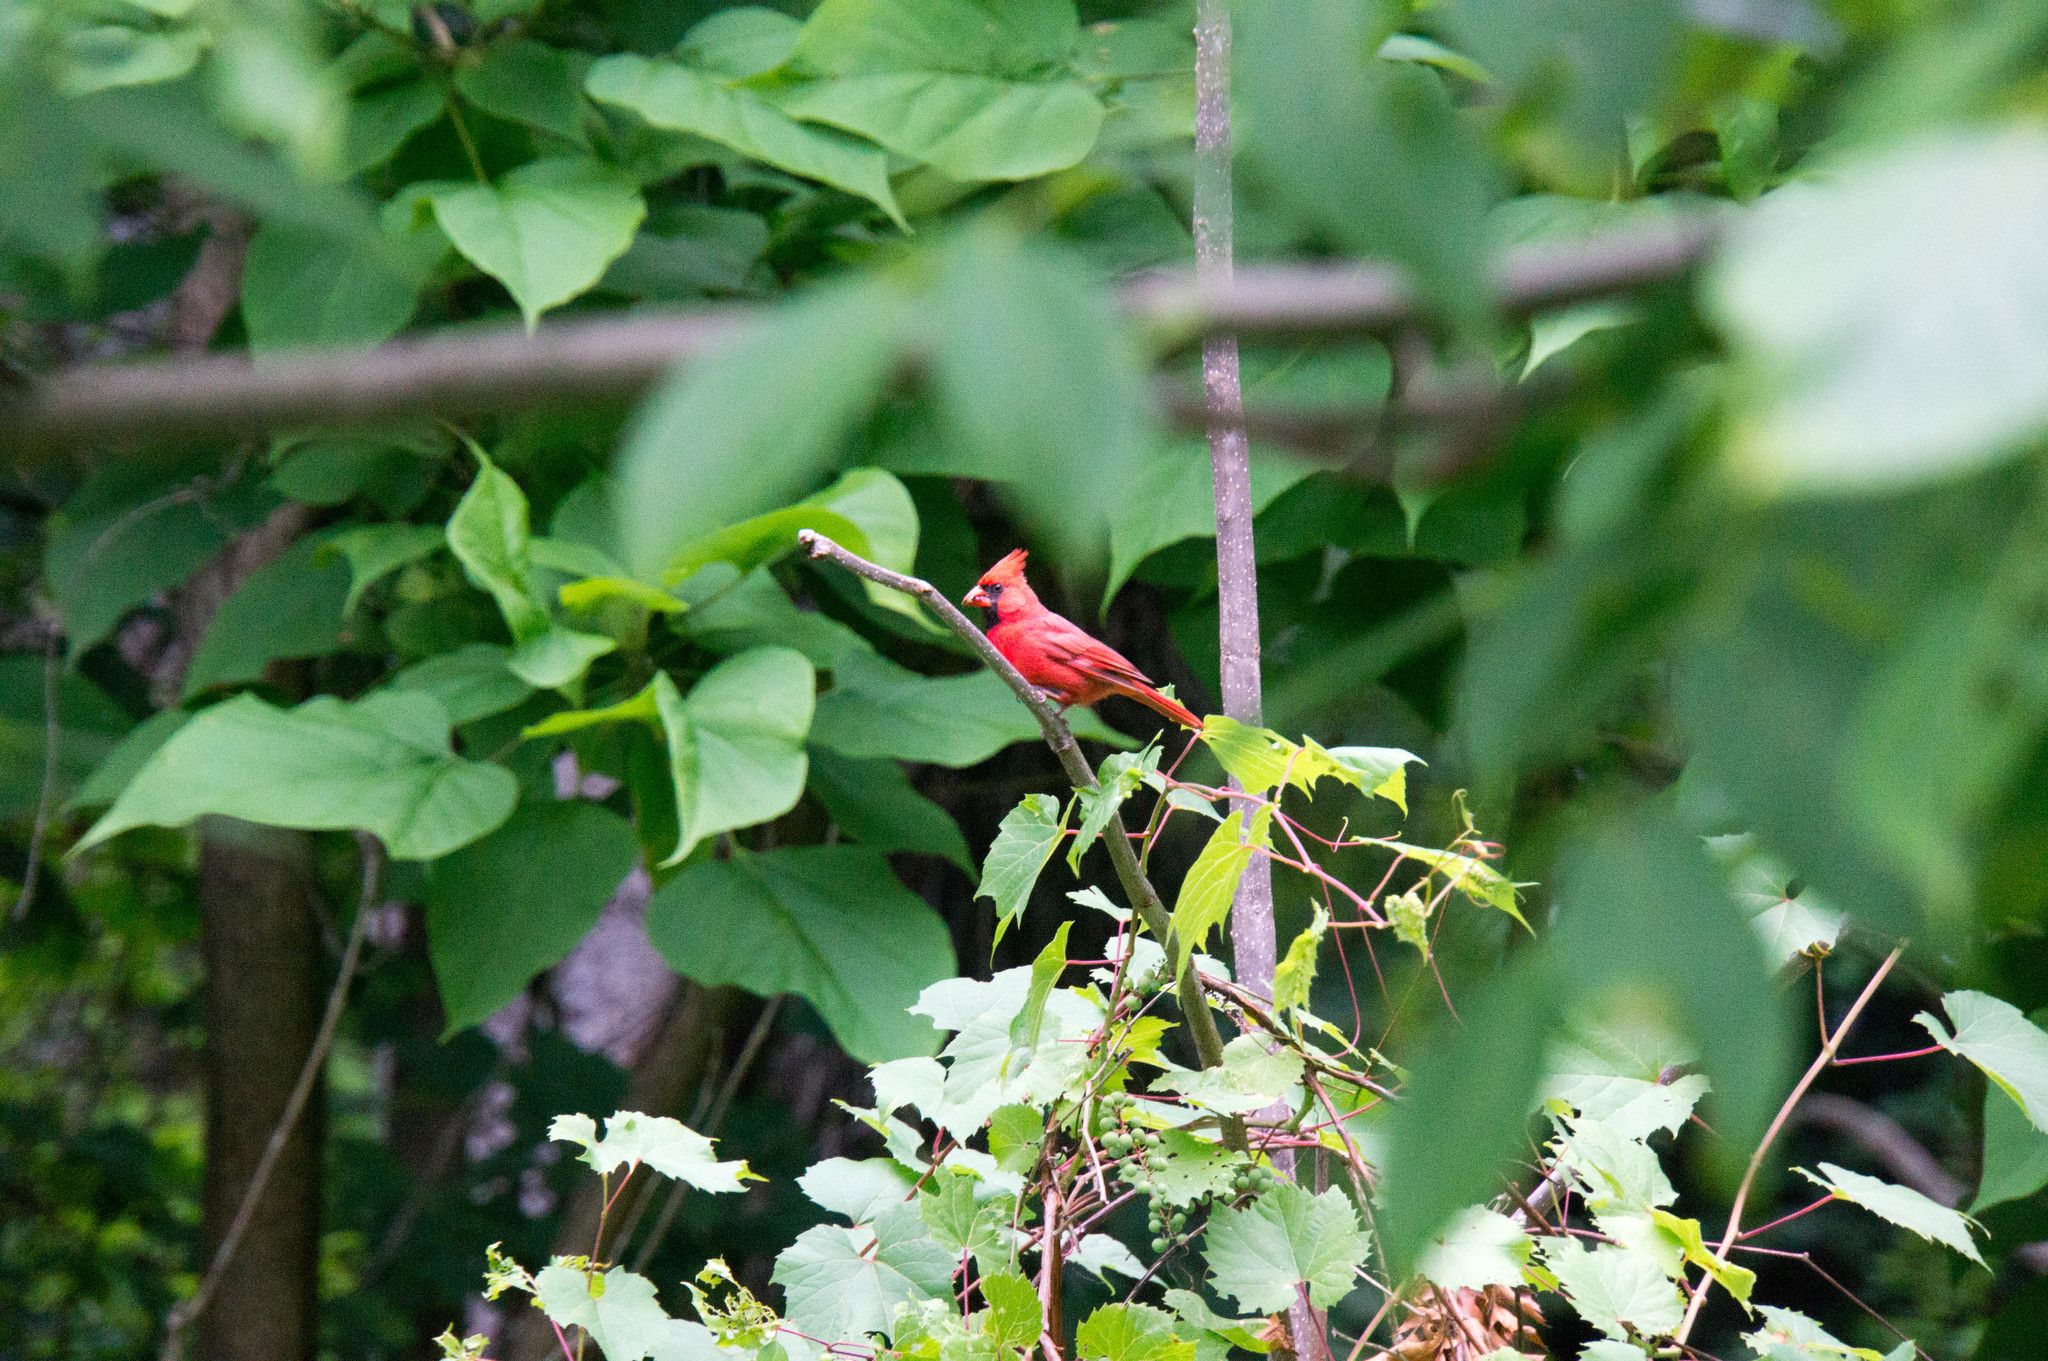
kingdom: Animalia
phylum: Chordata
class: Aves
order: Passeriformes
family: Cardinalidae
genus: Cardinalis
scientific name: Cardinalis cardinalis
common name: Northern cardinal
